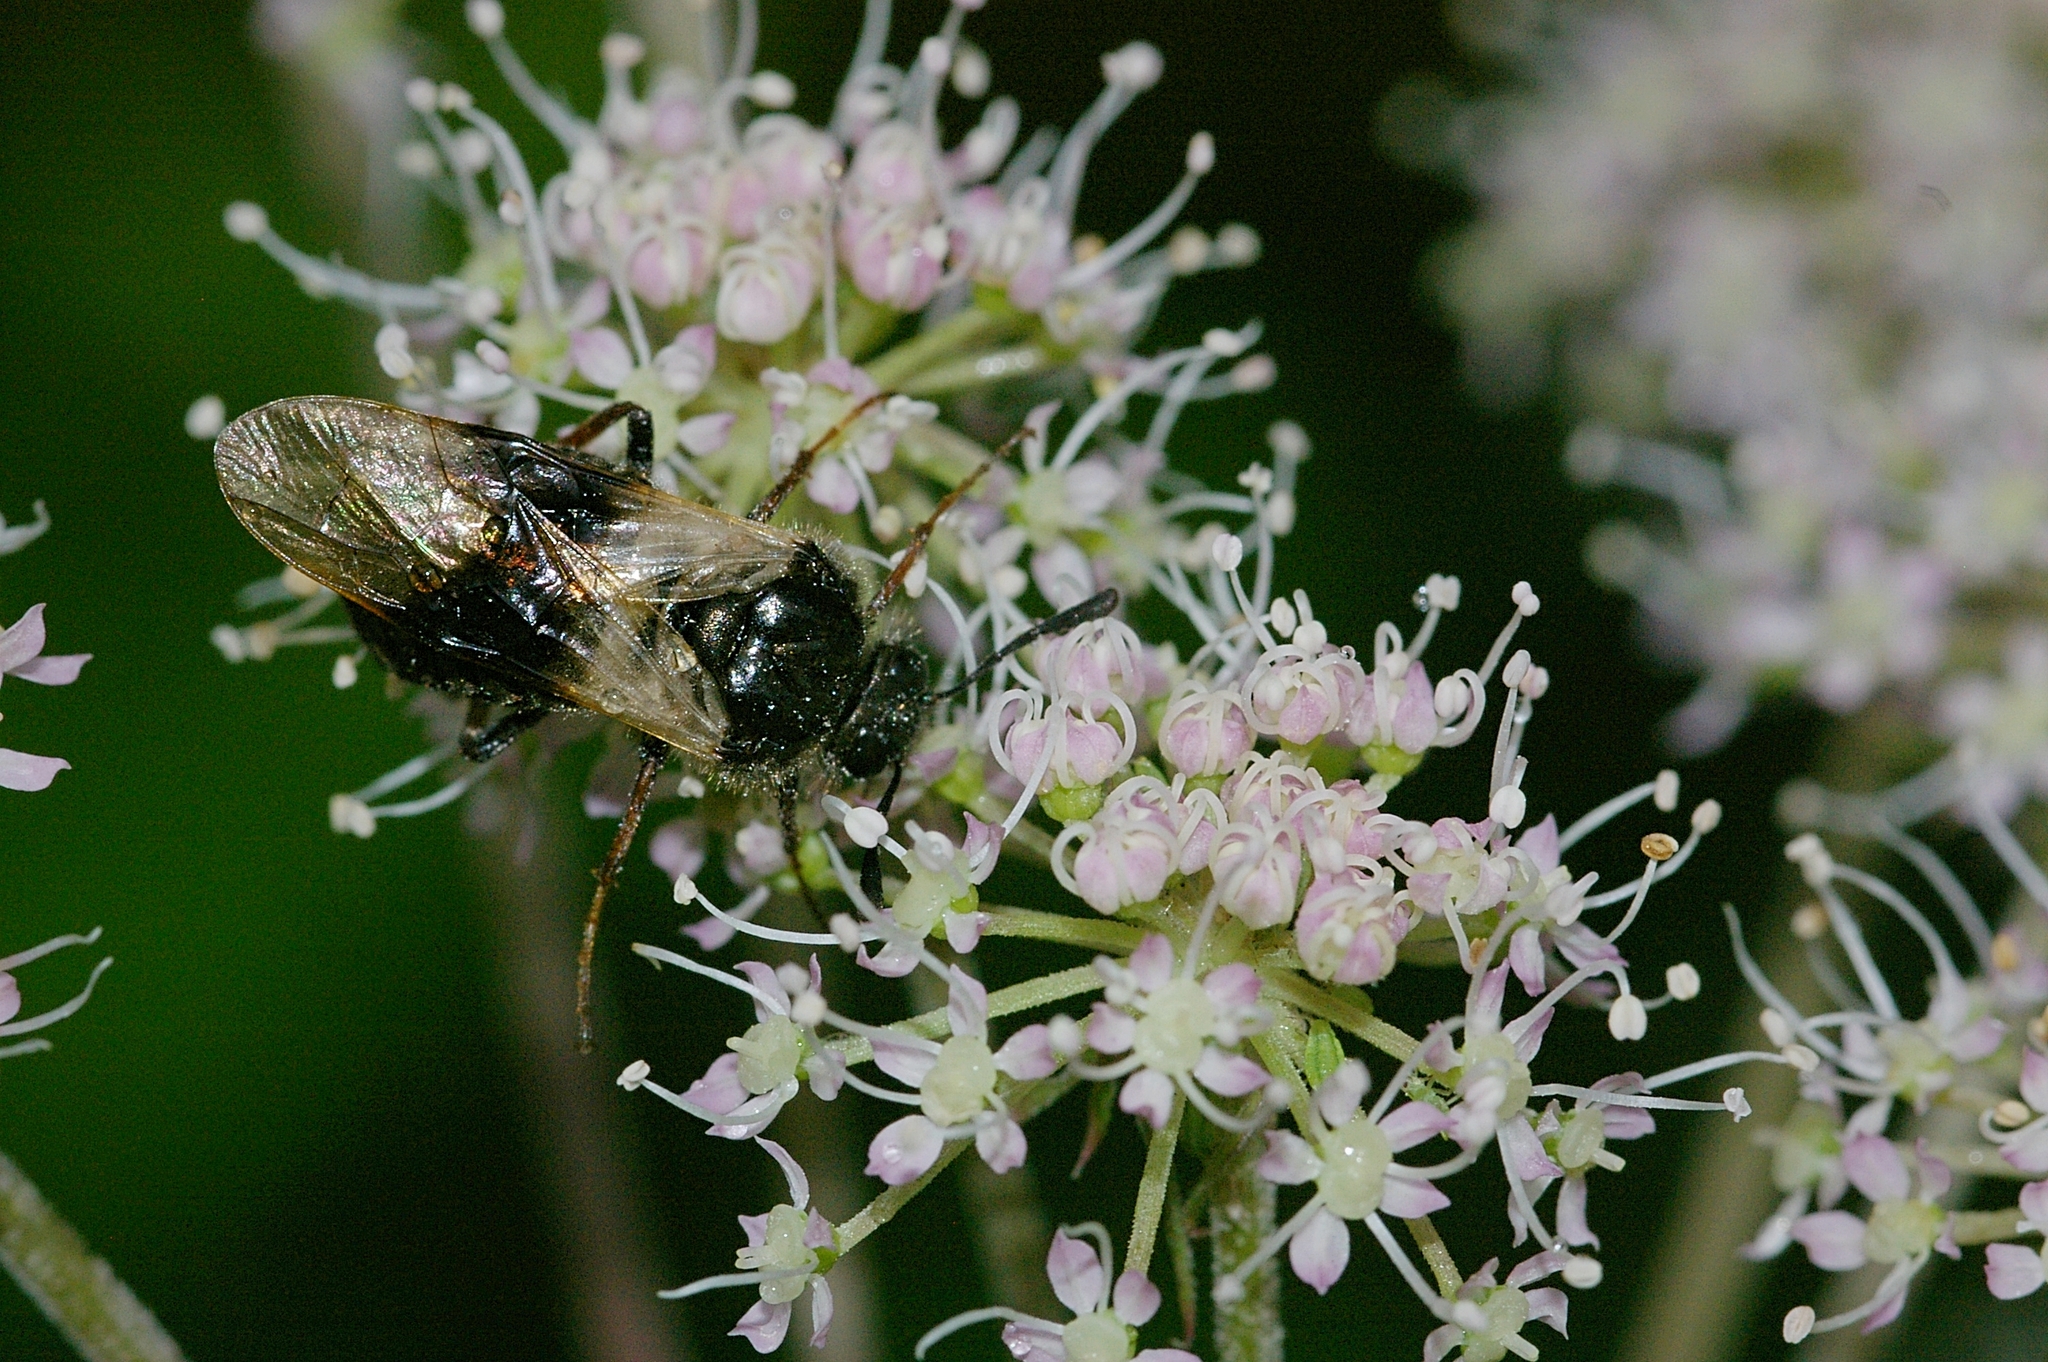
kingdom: Animalia
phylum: Arthropoda
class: Insecta
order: Hymenoptera
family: Cimbicidae
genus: Abia
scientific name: Abia fasciata
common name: Banded honeysuckle sawfly
